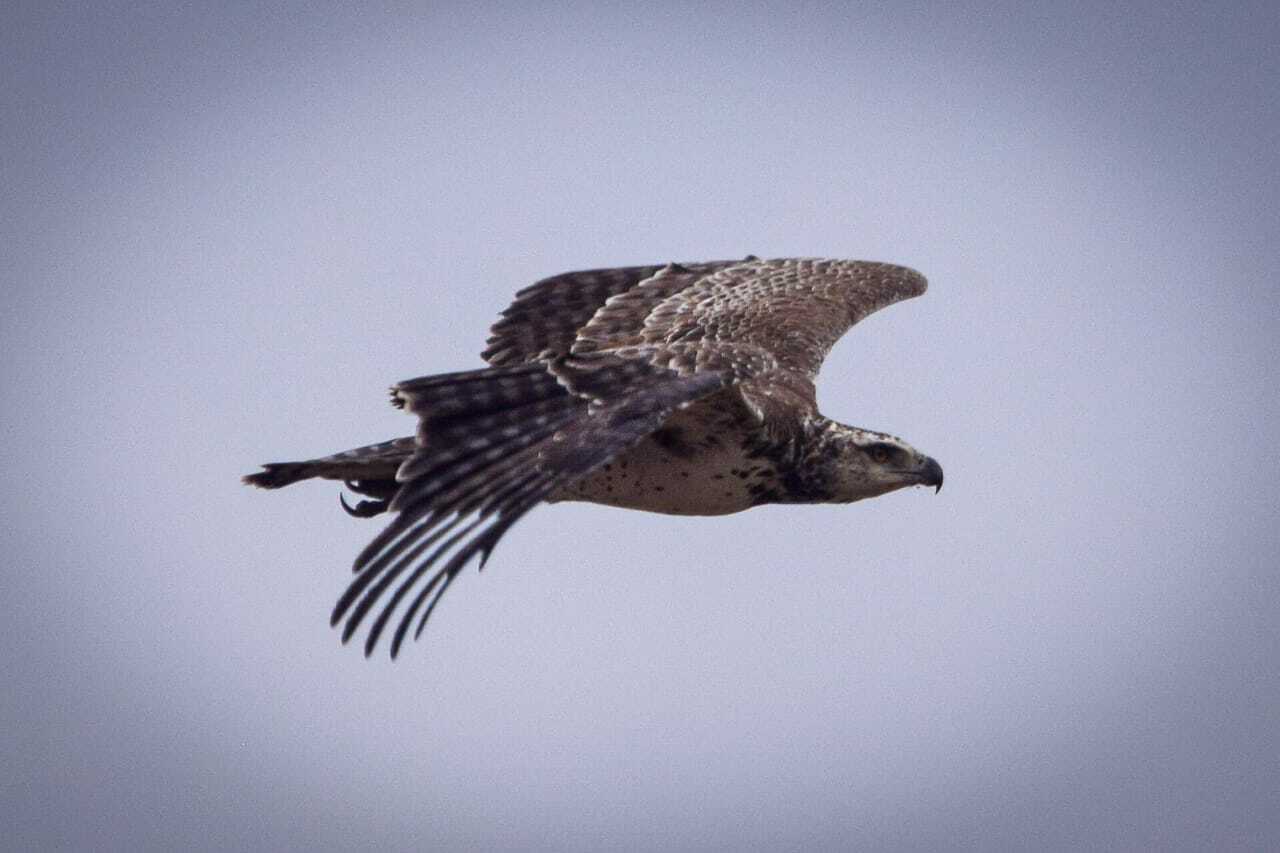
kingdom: Animalia
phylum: Chordata
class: Aves
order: Accipitriformes
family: Accipitridae
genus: Polemaetus
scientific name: Polemaetus bellicosus
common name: Martial eagle
